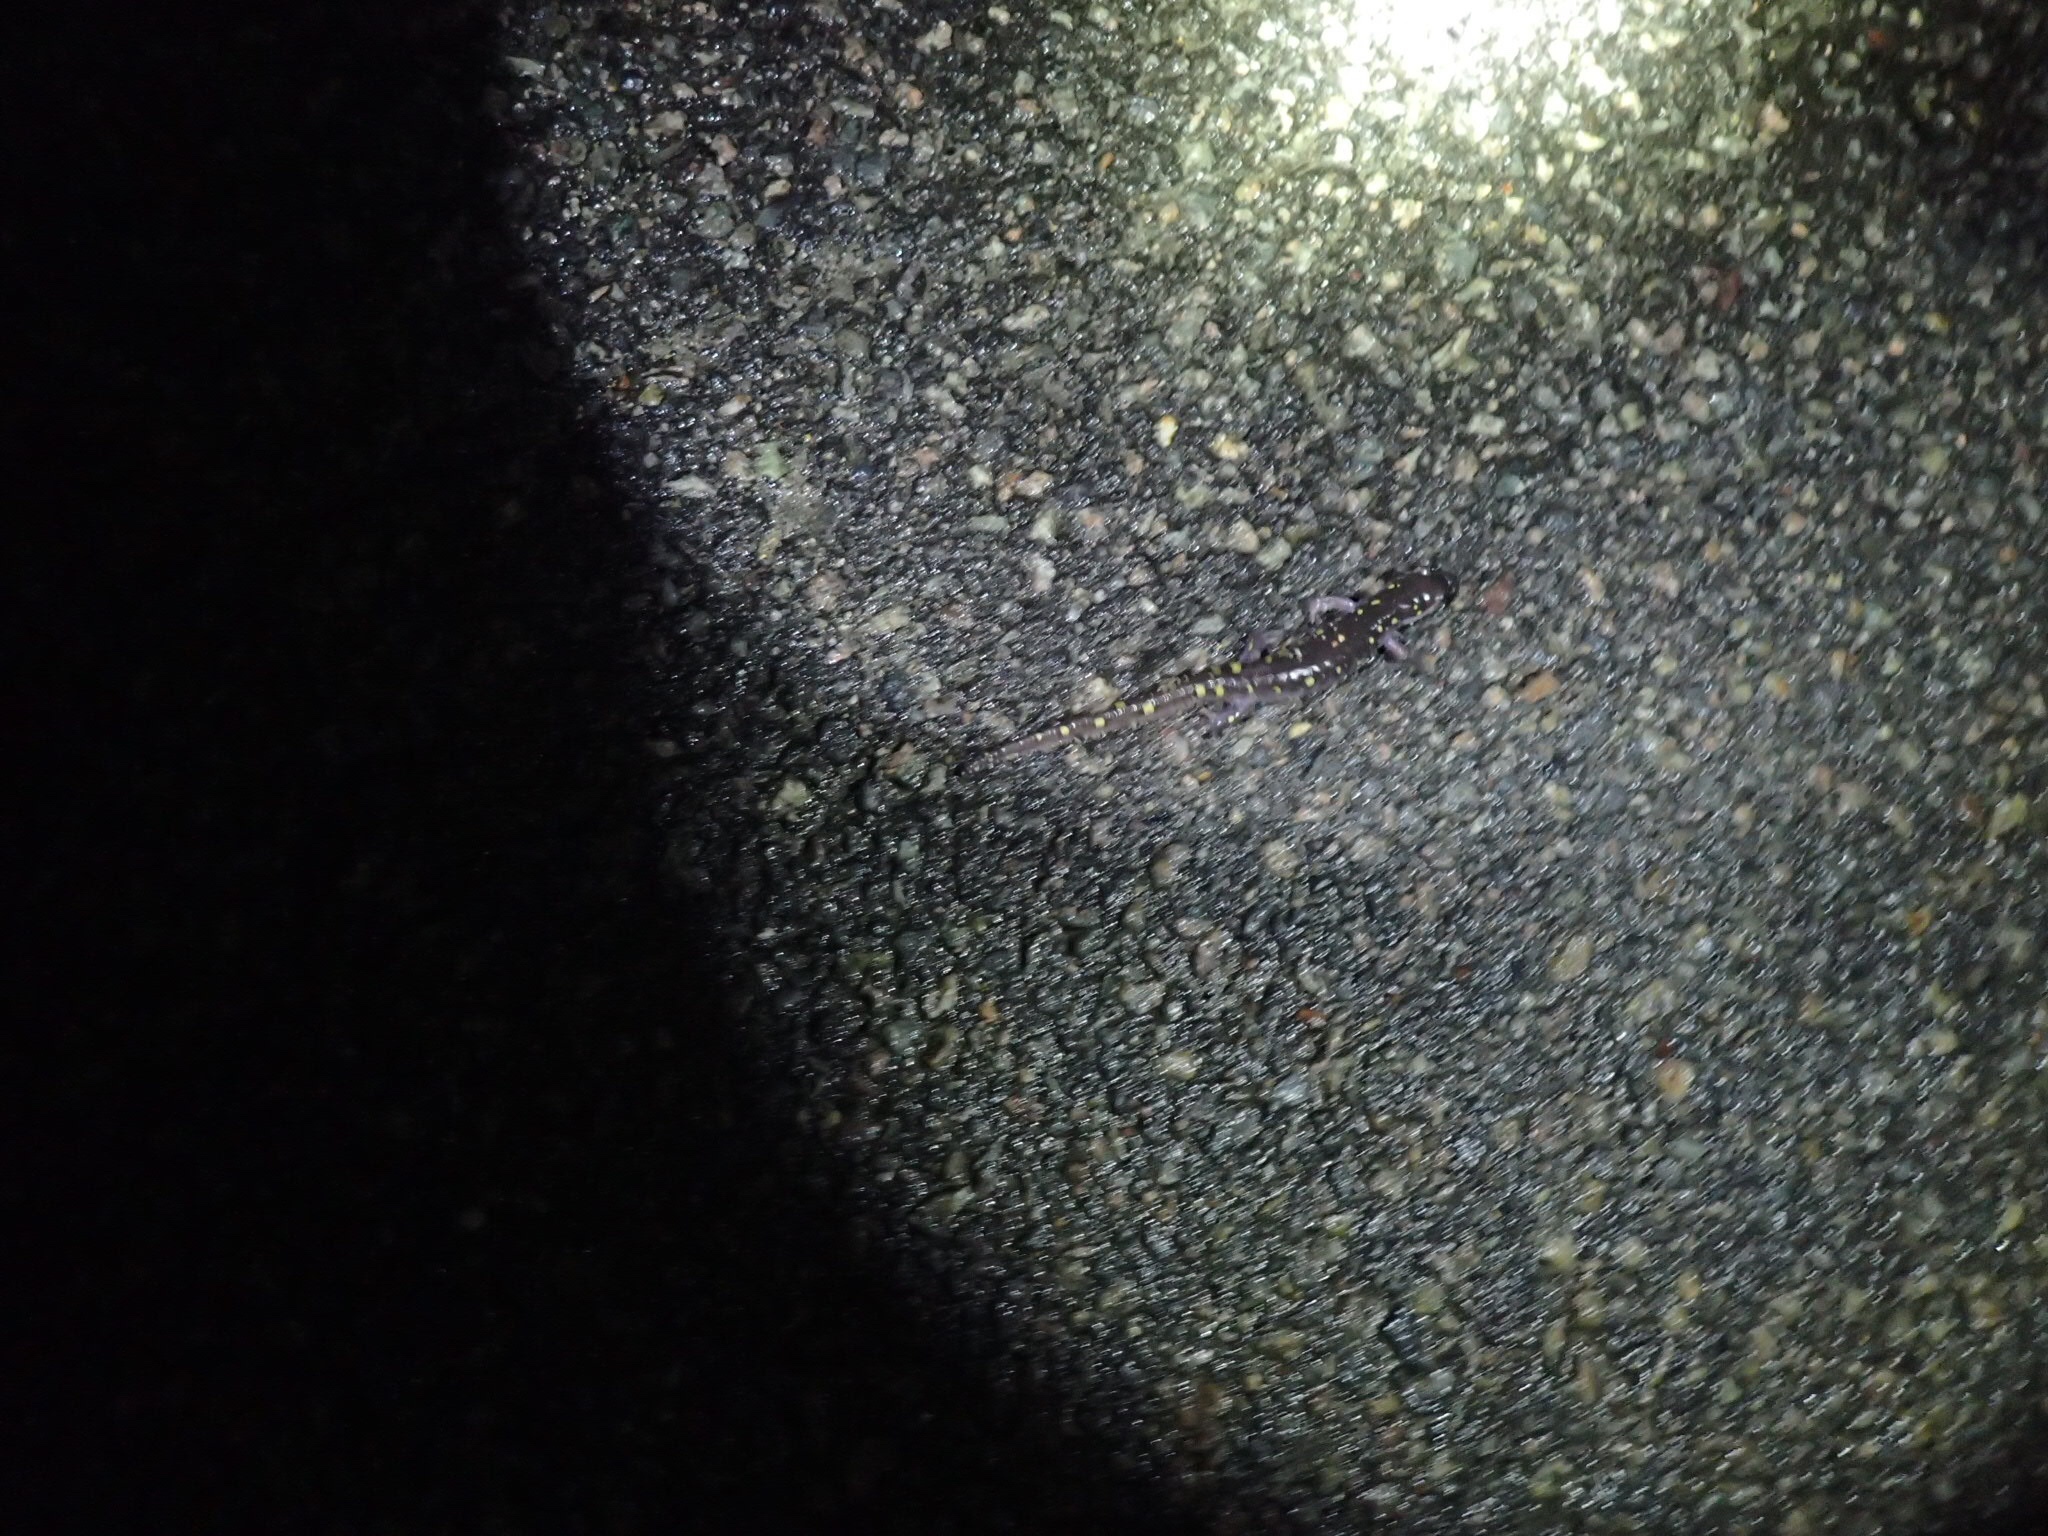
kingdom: Animalia
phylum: Chordata
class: Amphibia
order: Caudata
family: Ambystomatidae
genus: Ambystoma
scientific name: Ambystoma maculatum
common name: Spotted salamander
